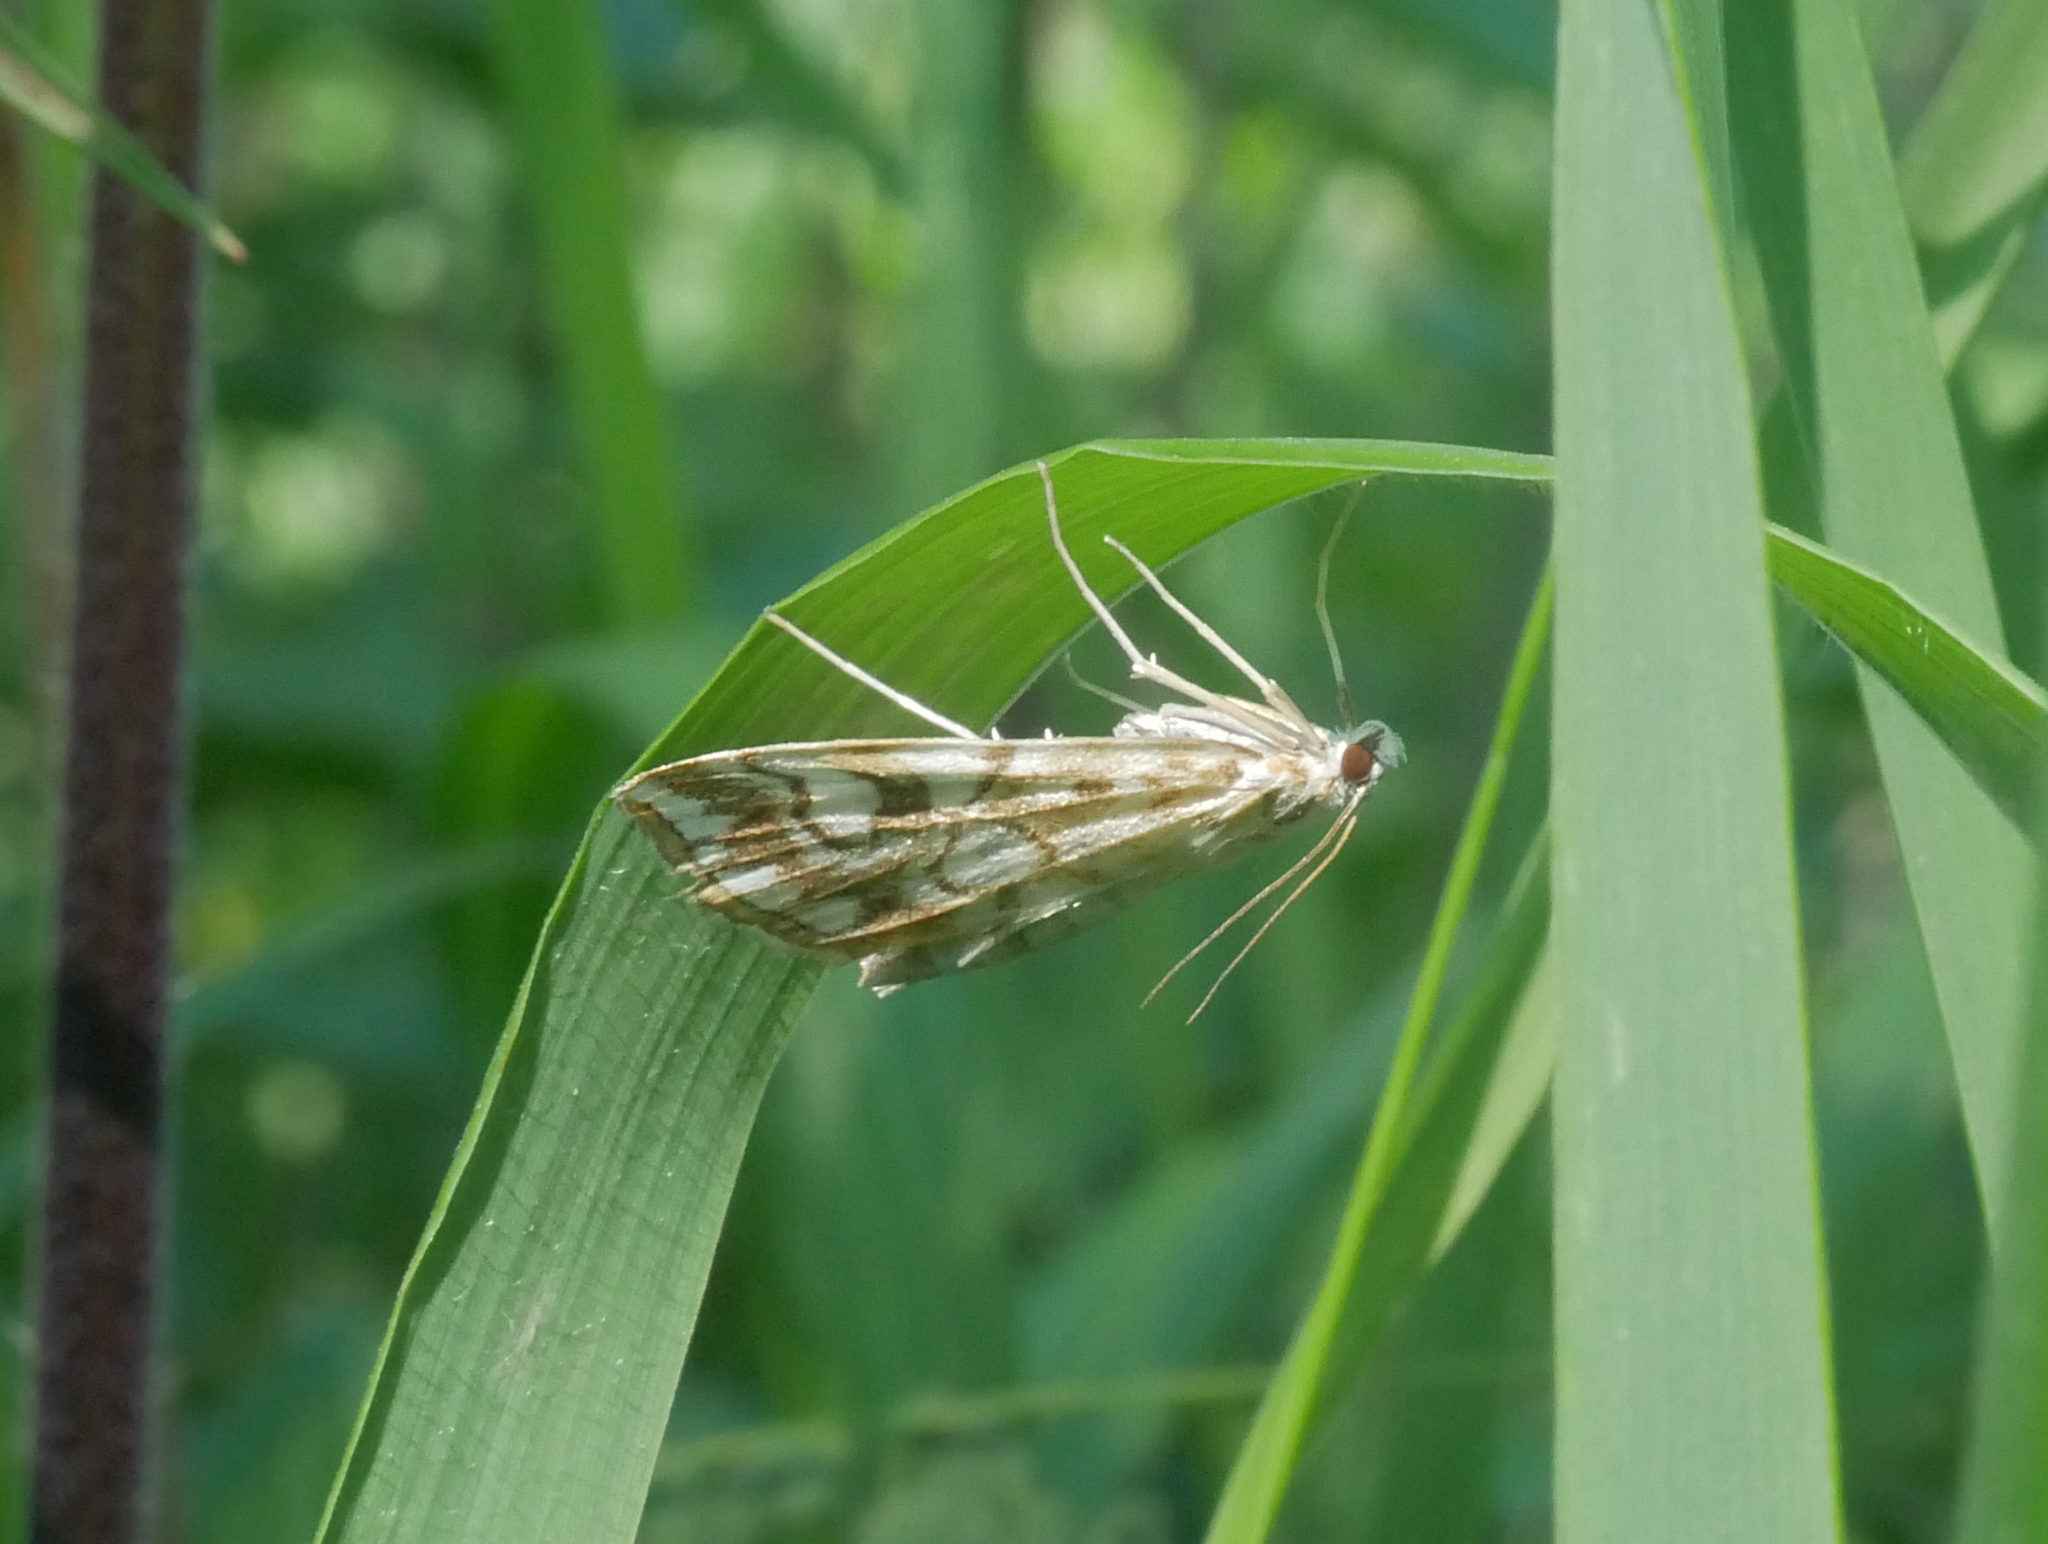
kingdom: Animalia
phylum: Arthropoda
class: Insecta
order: Lepidoptera
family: Crambidae
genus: Elophila
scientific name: Elophila nymphaeata
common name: Brown china-mark
